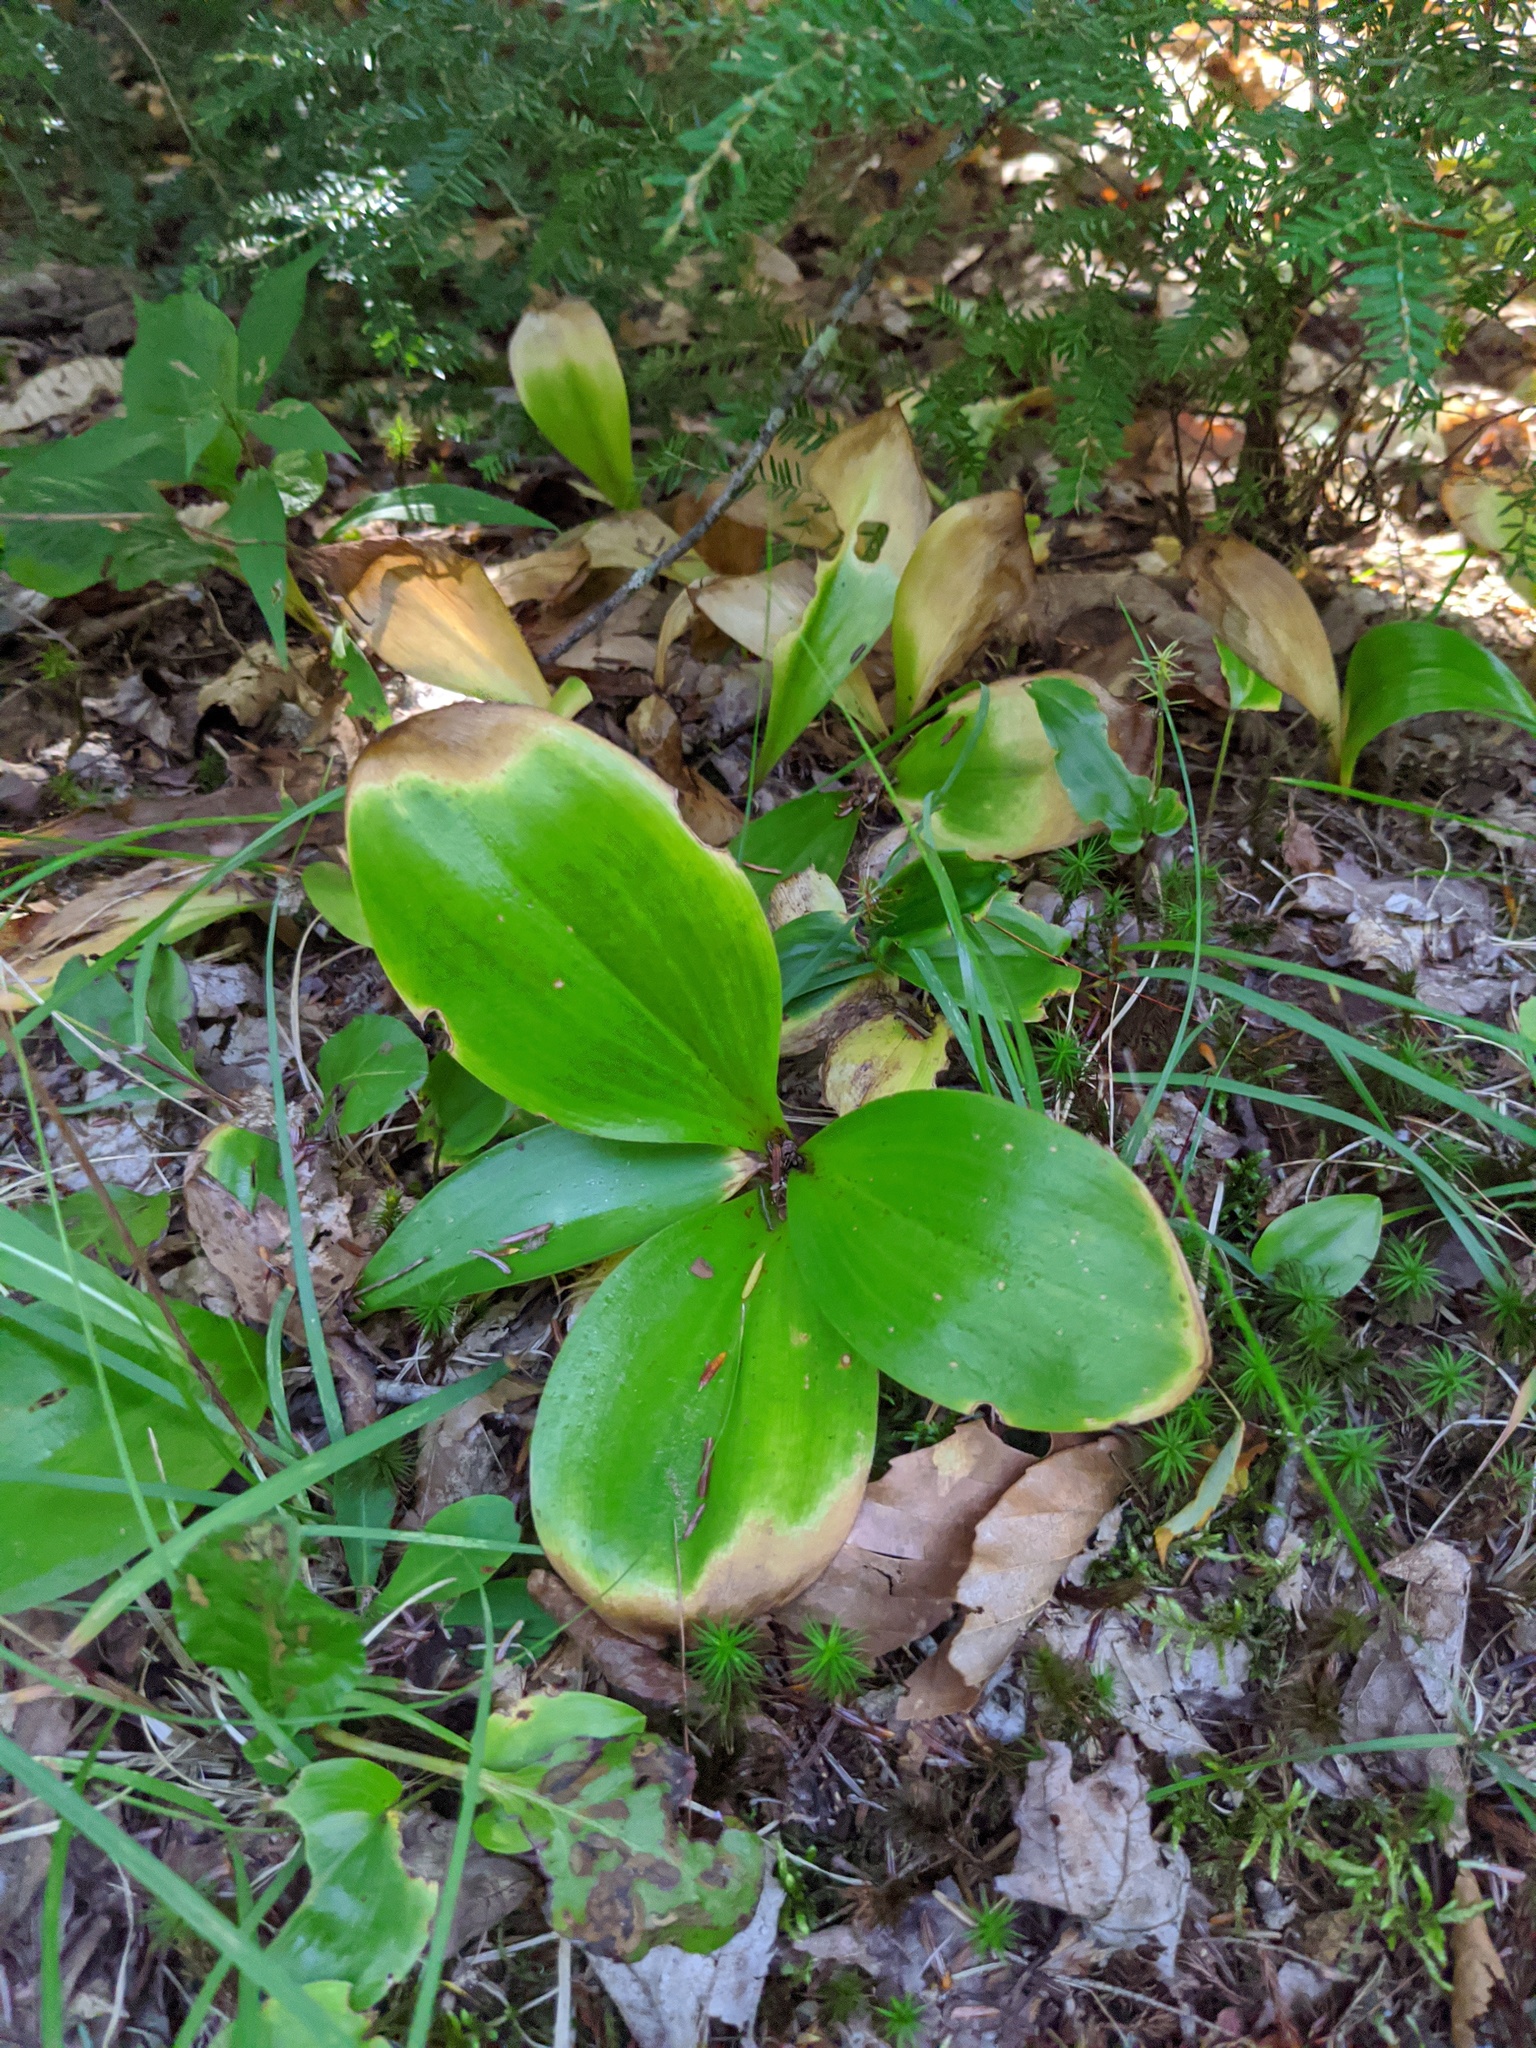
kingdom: Plantae
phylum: Tracheophyta
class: Liliopsida
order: Liliales
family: Liliaceae
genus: Clintonia
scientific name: Clintonia borealis
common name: Yellow clintonia
